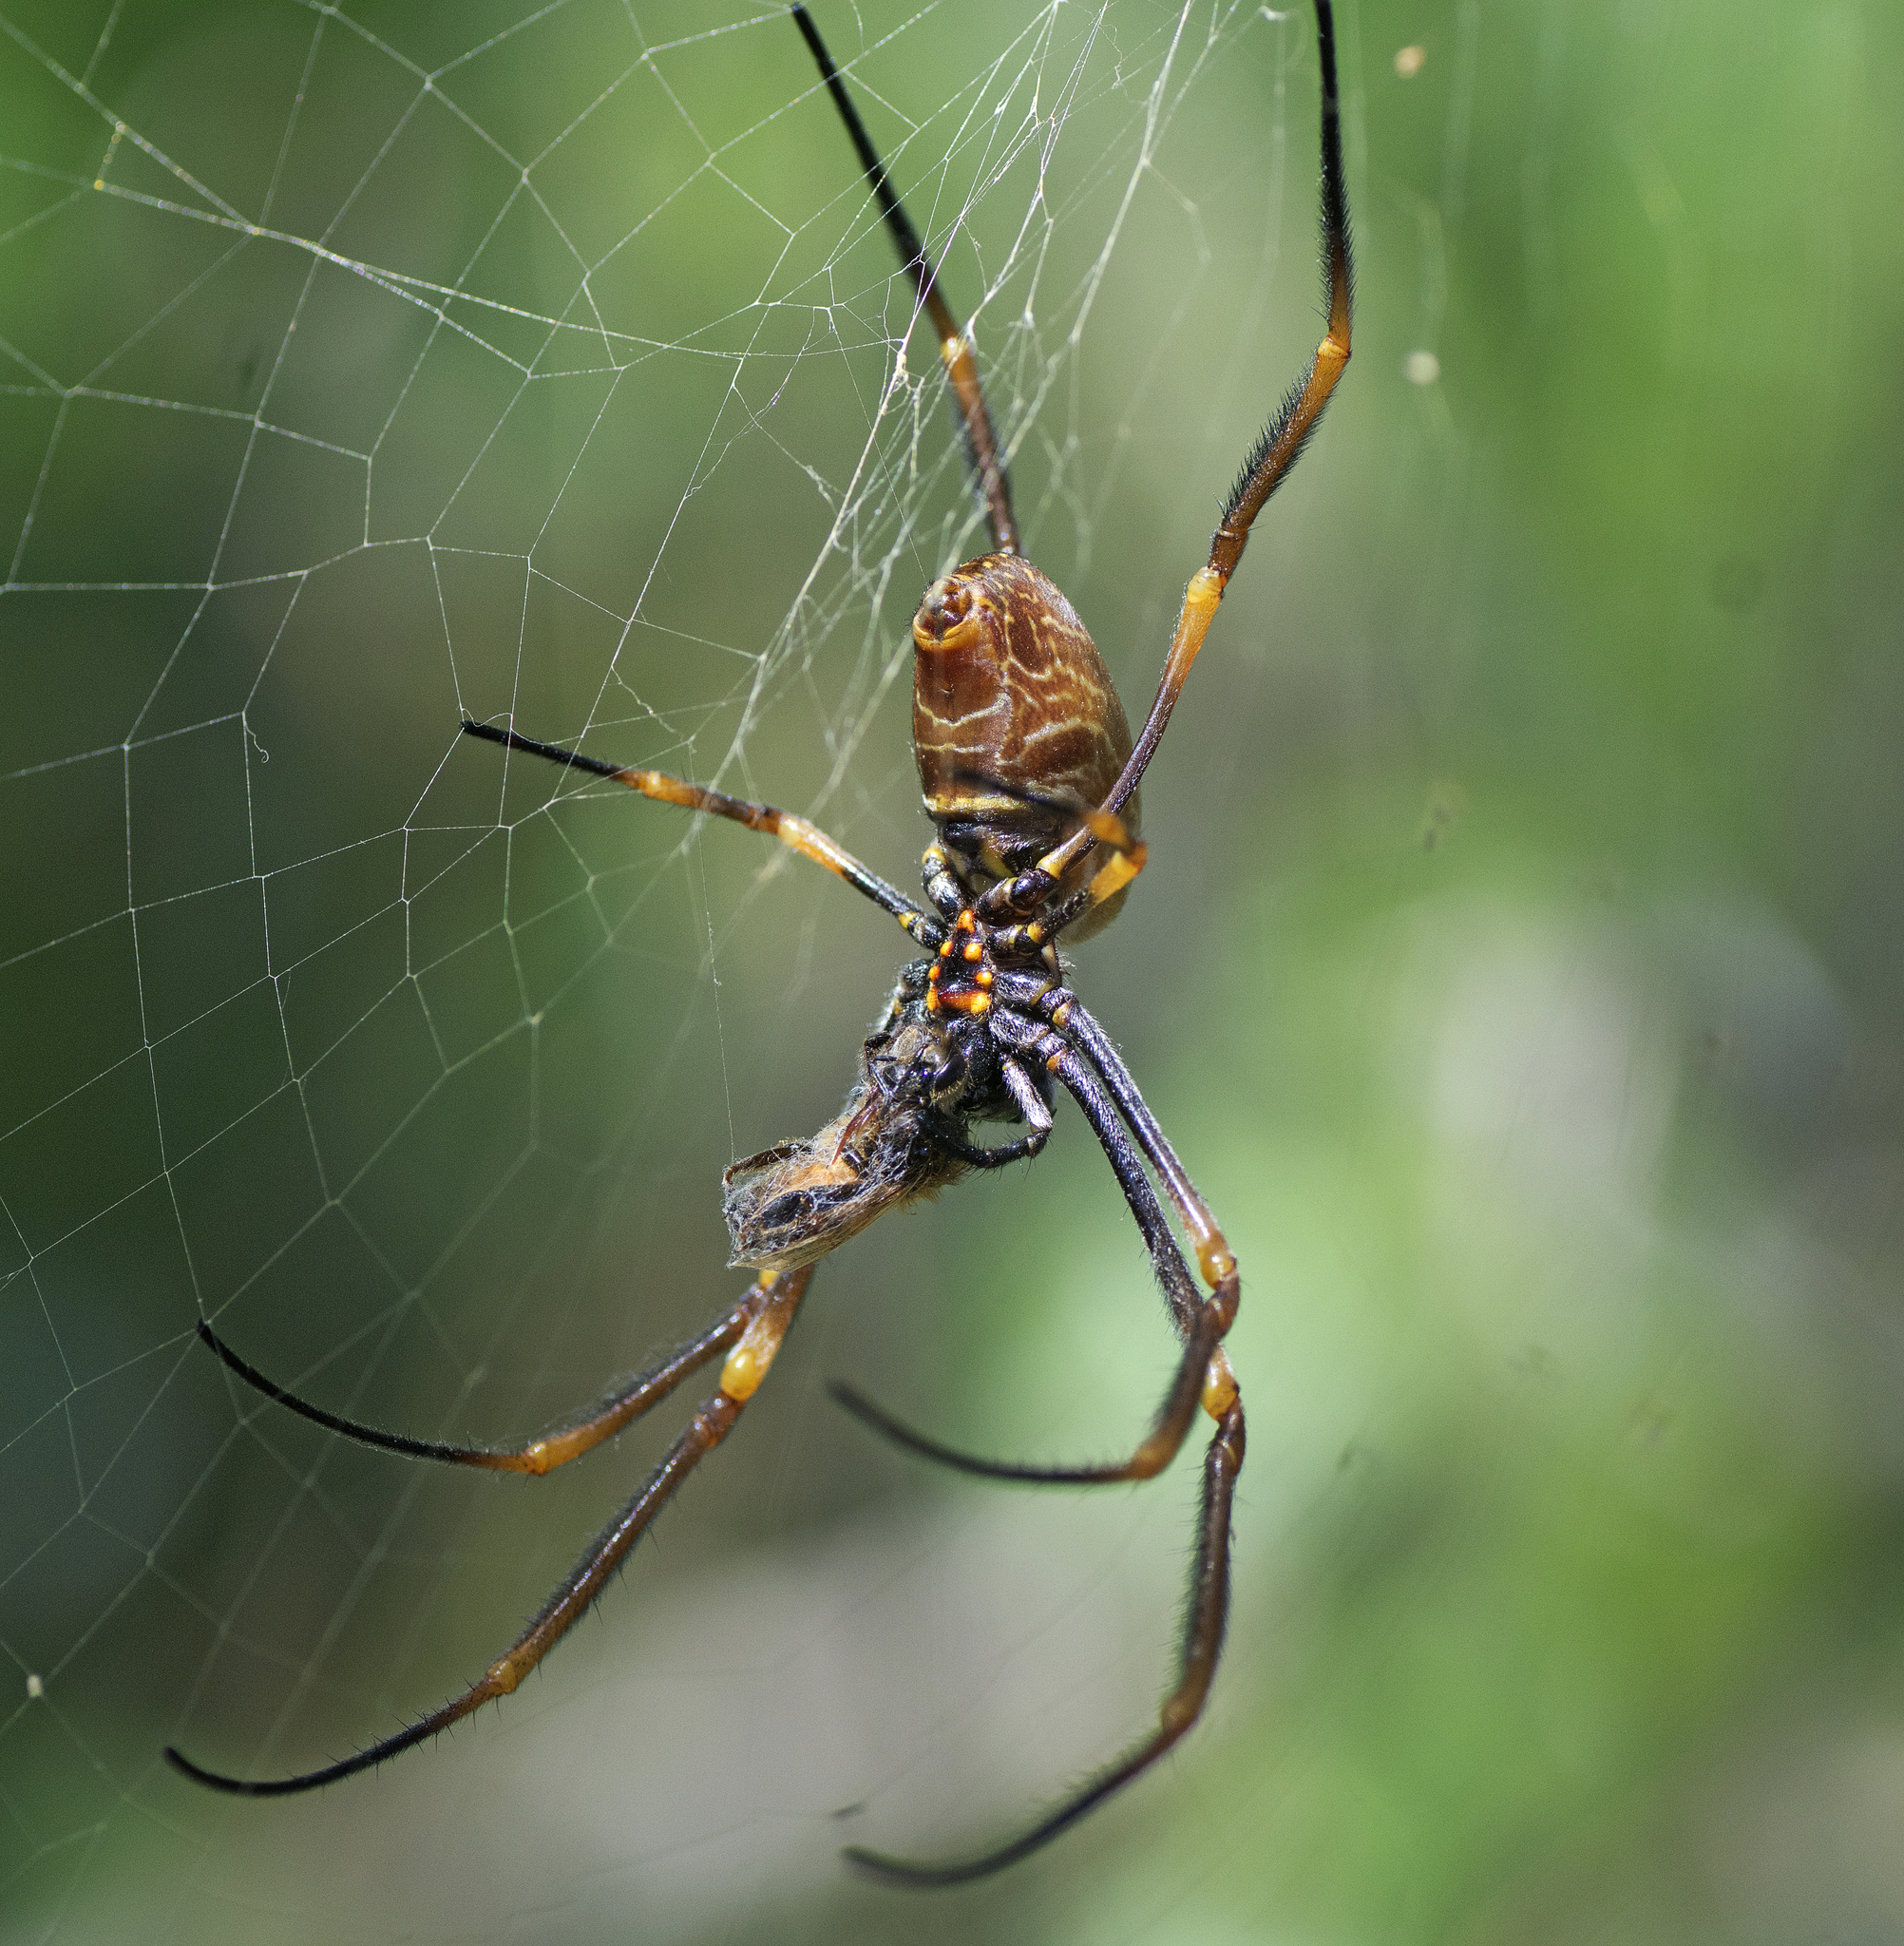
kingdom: Animalia
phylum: Arthropoda
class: Arachnida
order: Araneae
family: Araneidae
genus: Trichonephila
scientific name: Trichonephila plumipes
